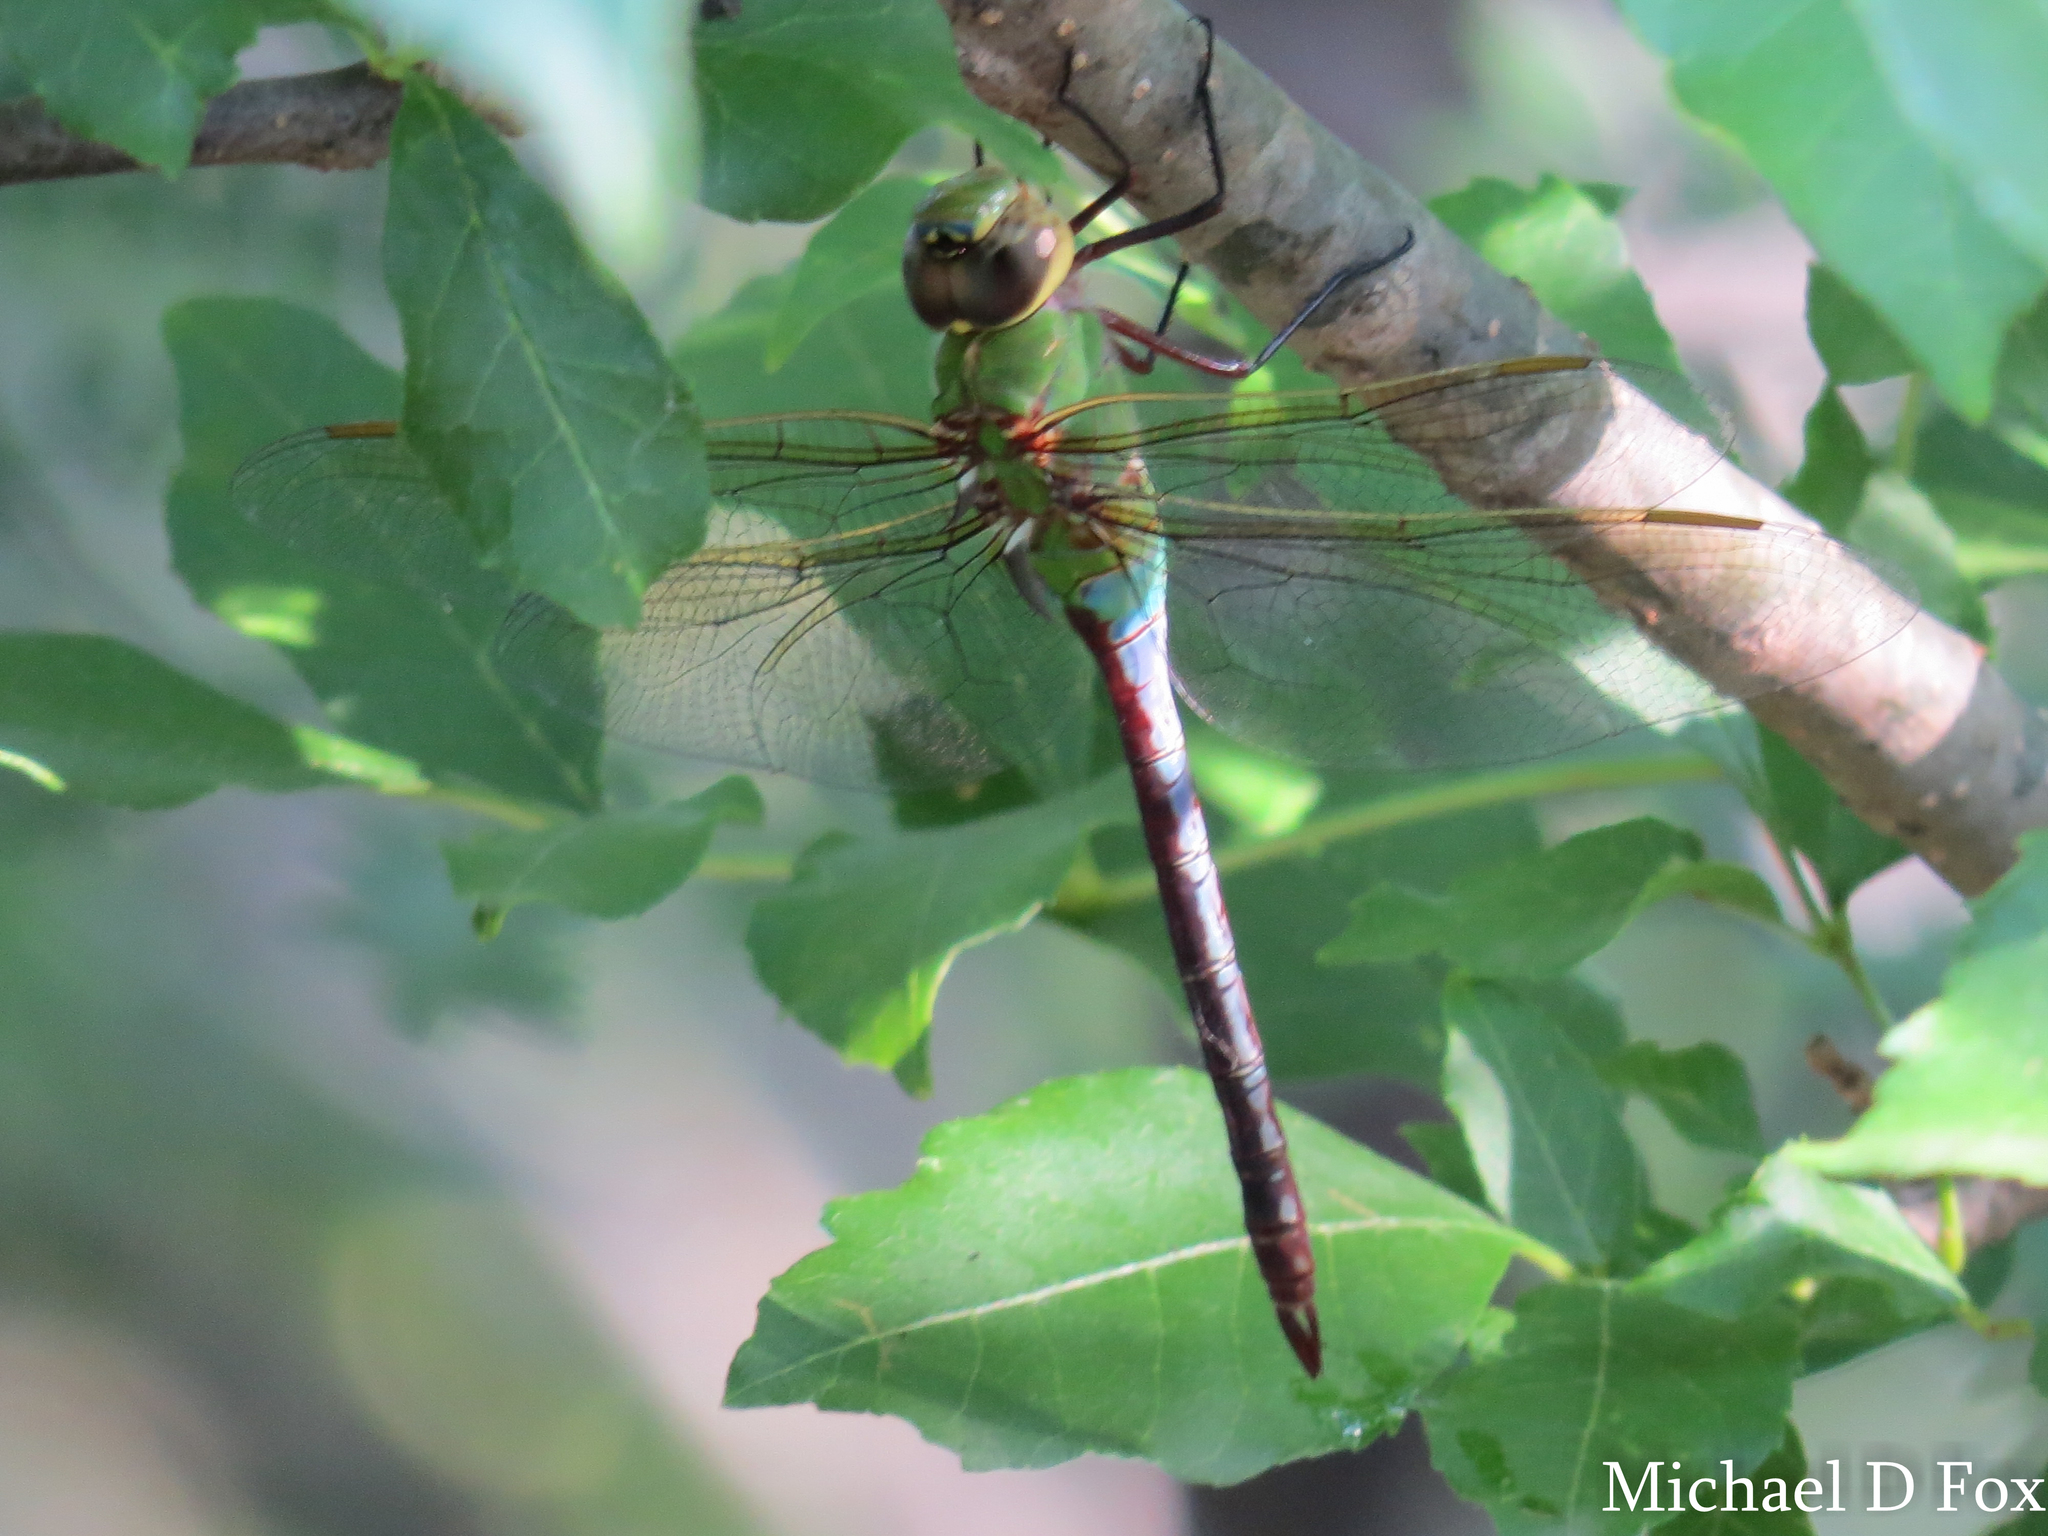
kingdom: Animalia
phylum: Arthropoda
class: Insecta
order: Odonata
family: Aeshnidae
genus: Anax
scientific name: Anax junius
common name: Common green darner
